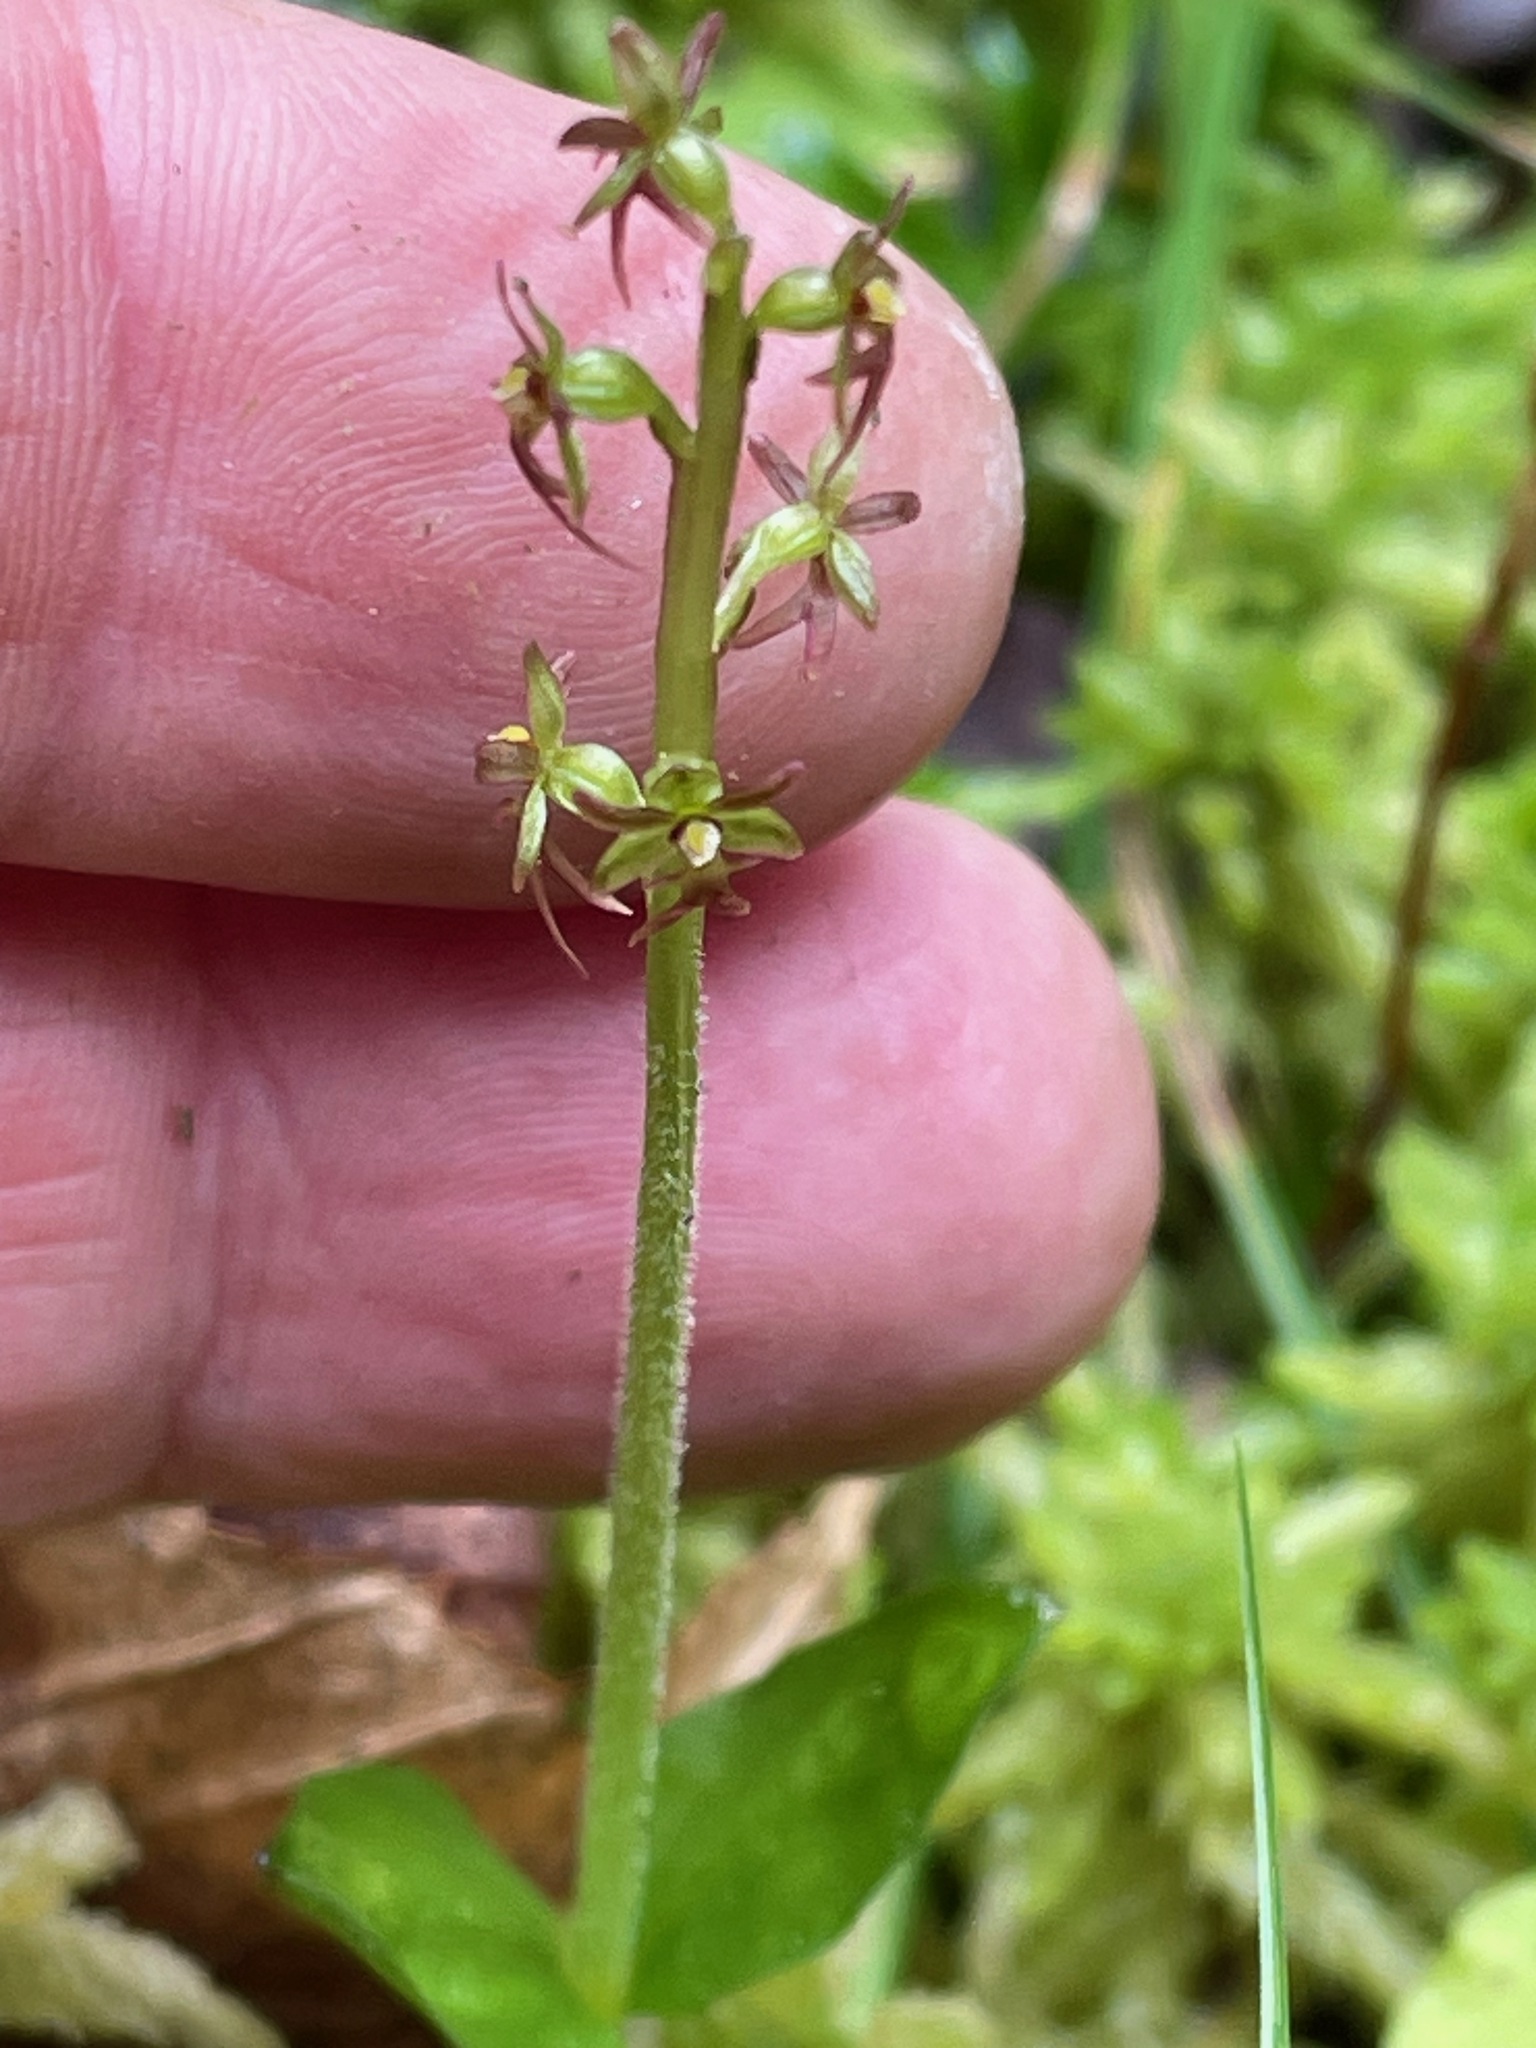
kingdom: Plantae
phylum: Tracheophyta
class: Liliopsida
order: Asparagales
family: Orchidaceae
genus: Neottia
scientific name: Neottia cordata
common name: Lesser twayblade
